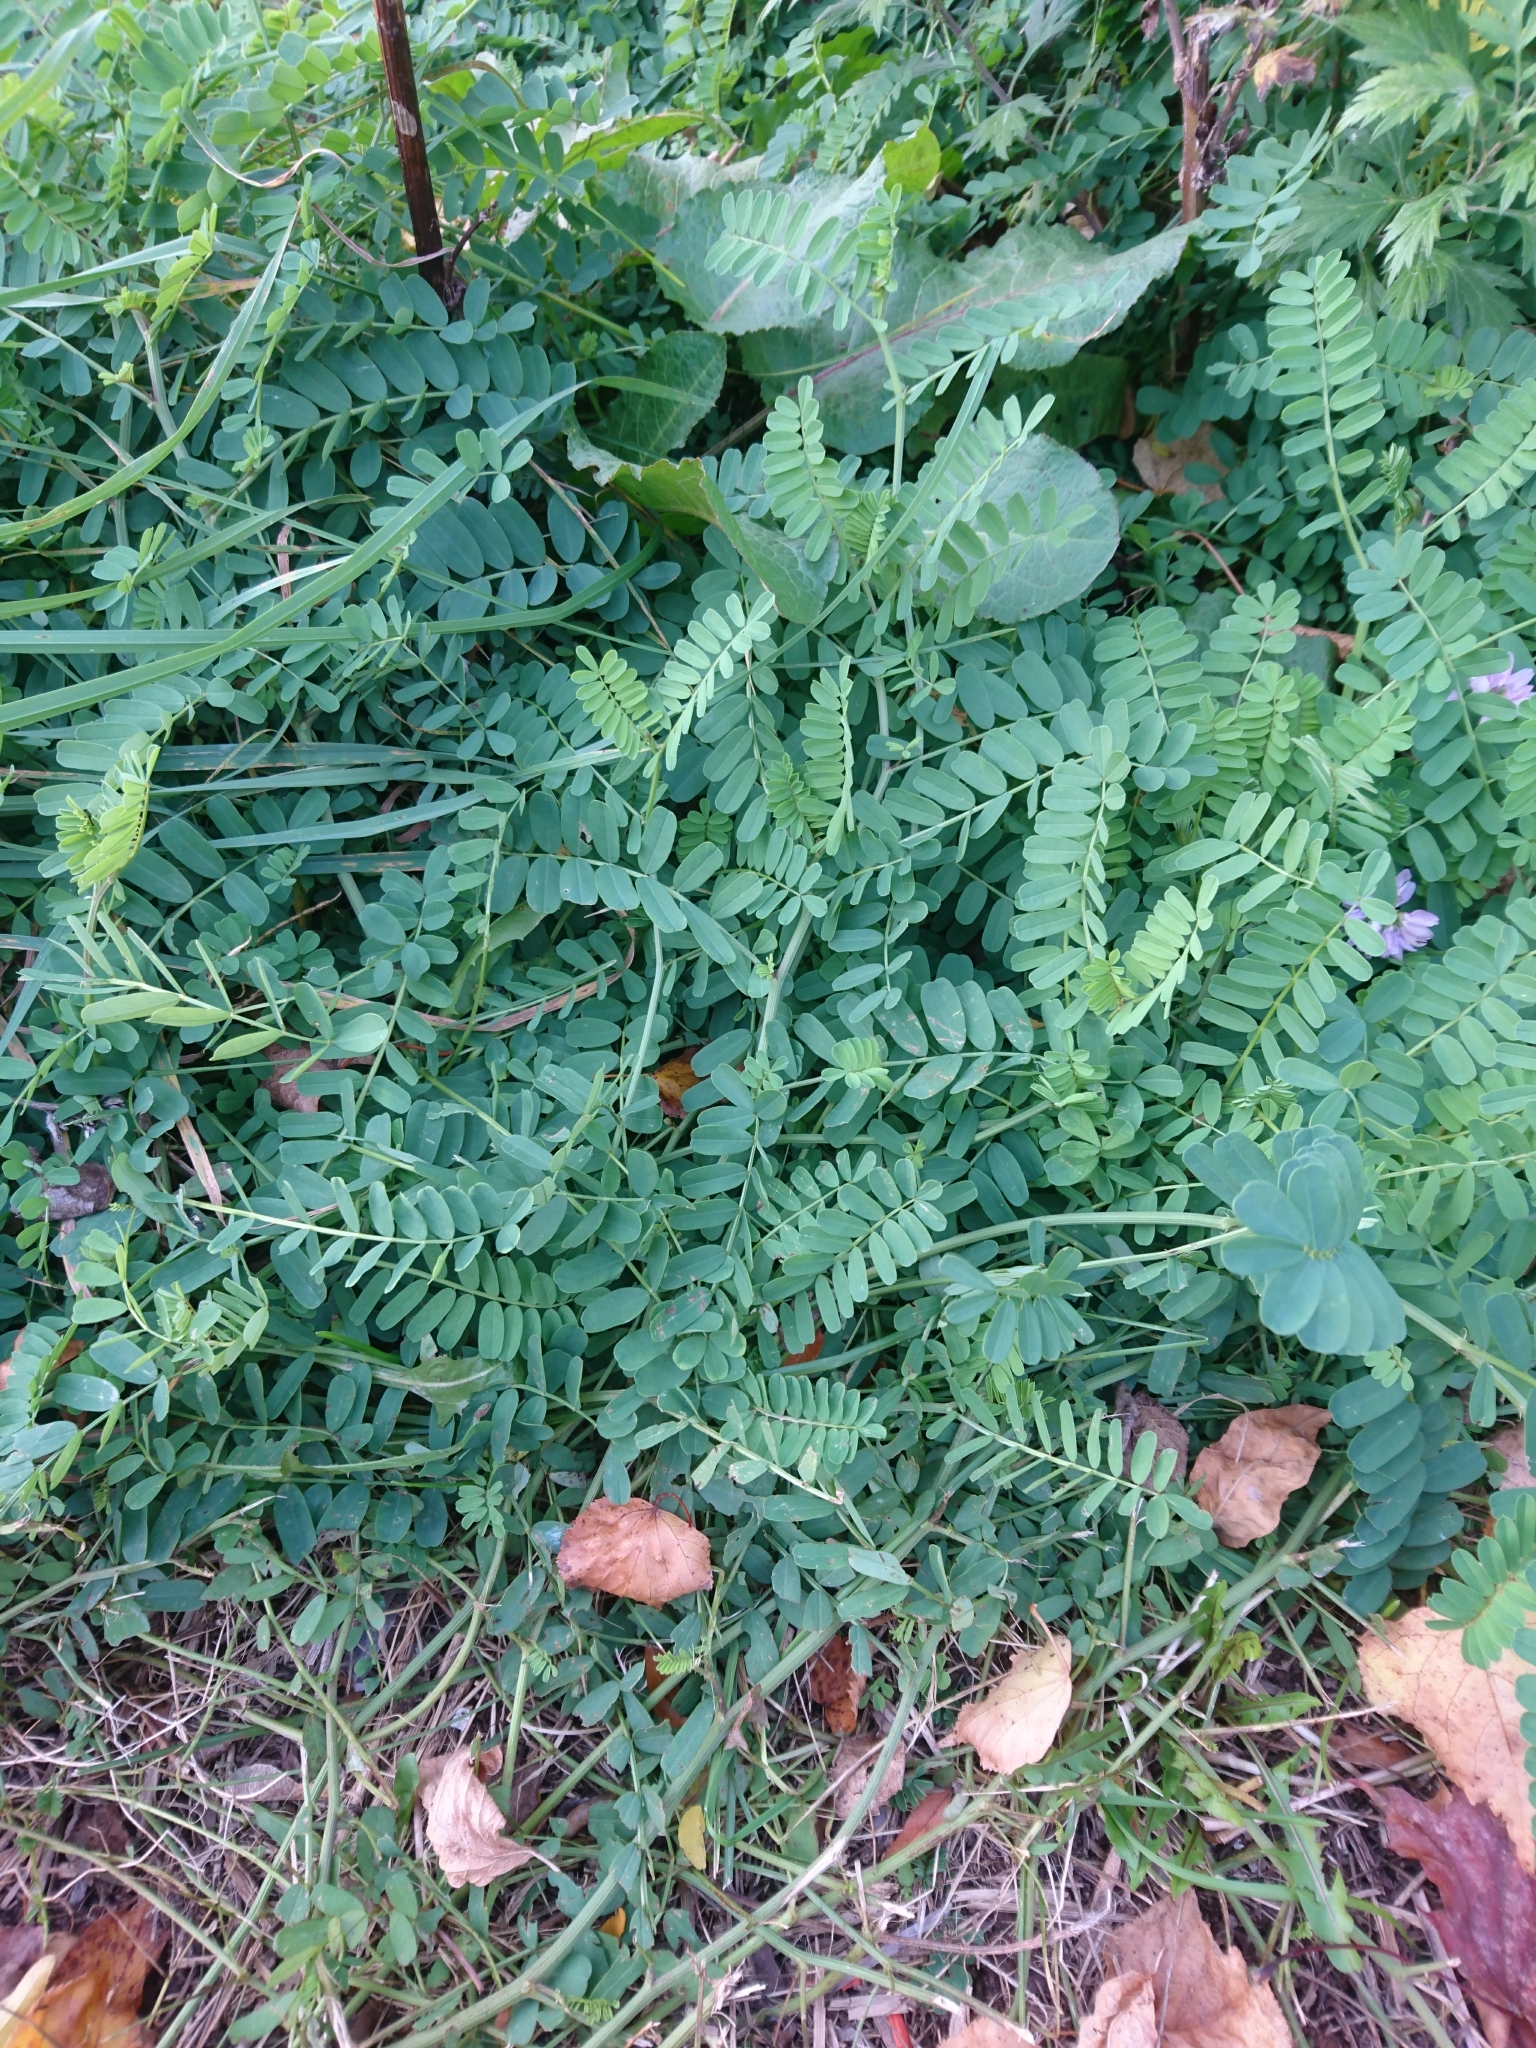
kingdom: Plantae
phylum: Tracheophyta
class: Magnoliopsida
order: Fabales
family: Fabaceae
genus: Coronilla
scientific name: Coronilla varia
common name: Crownvetch
